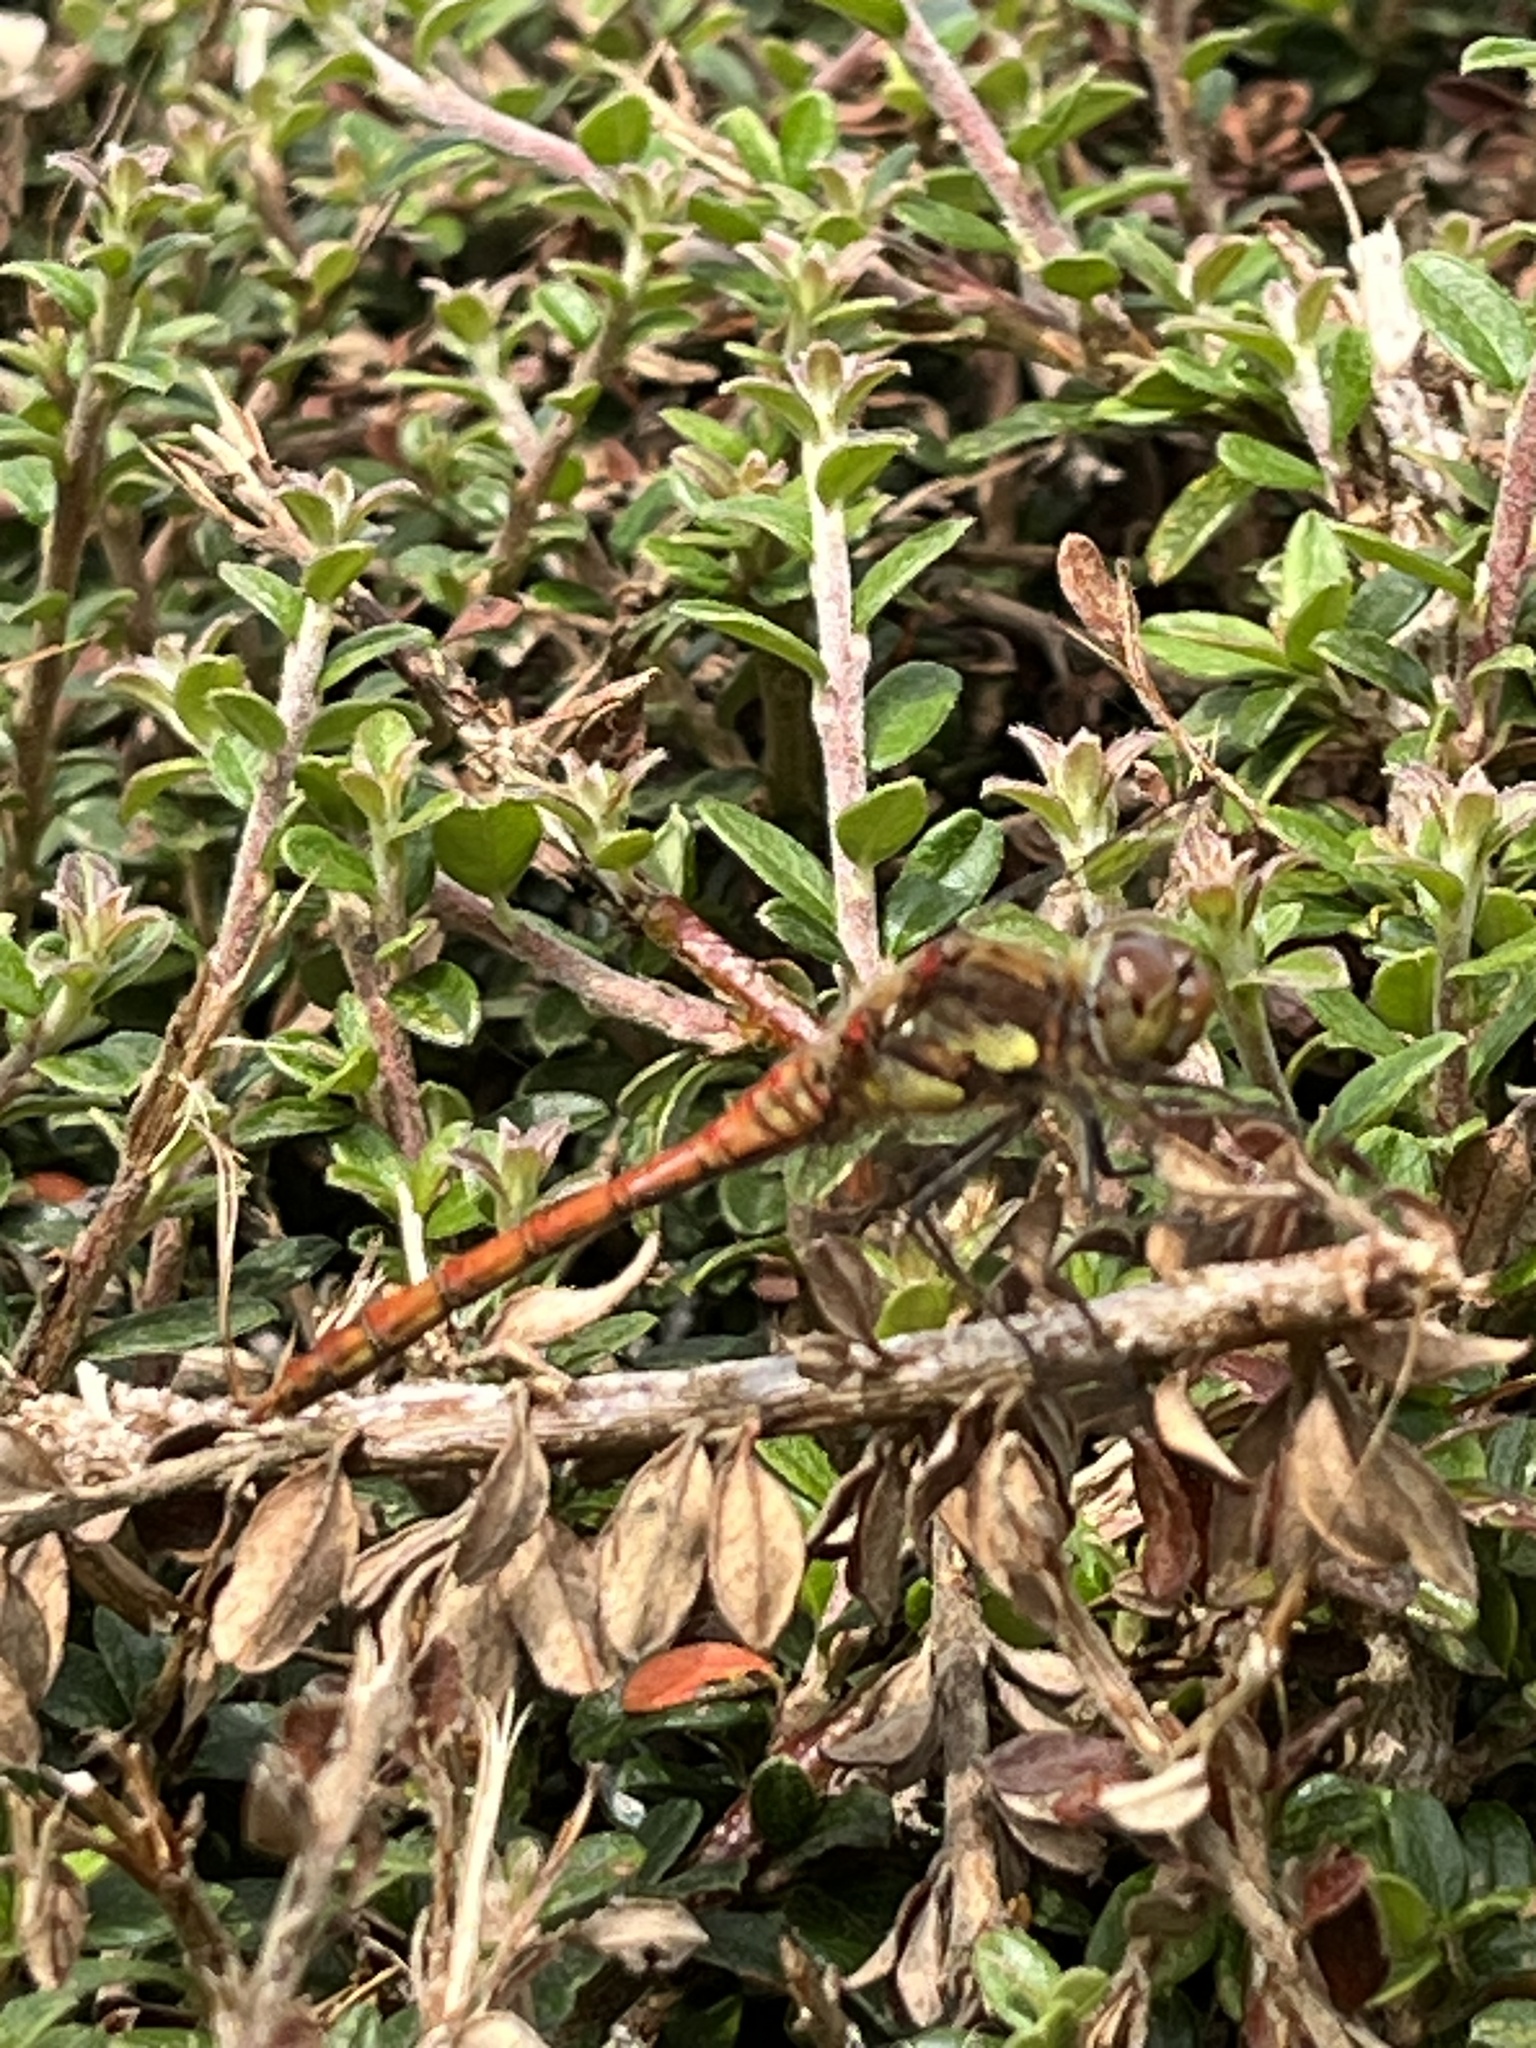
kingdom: Animalia
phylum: Arthropoda
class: Insecta
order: Odonata
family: Libellulidae
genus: Sympetrum
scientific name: Sympetrum striolatum
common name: Common darter
